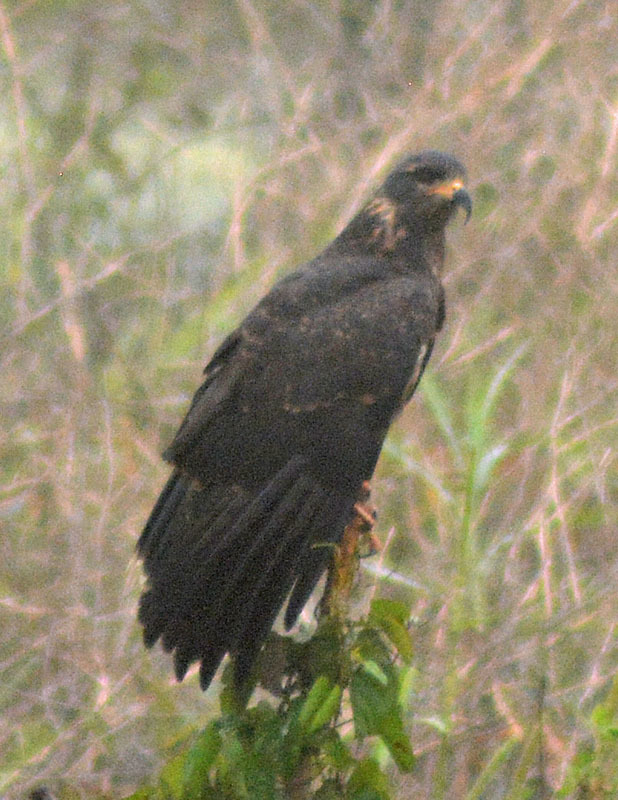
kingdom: Animalia
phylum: Chordata
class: Aves
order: Accipitriformes
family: Accipitridae
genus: Rostrhamus
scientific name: Rostrhamus sociabilis
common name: Snail kite
